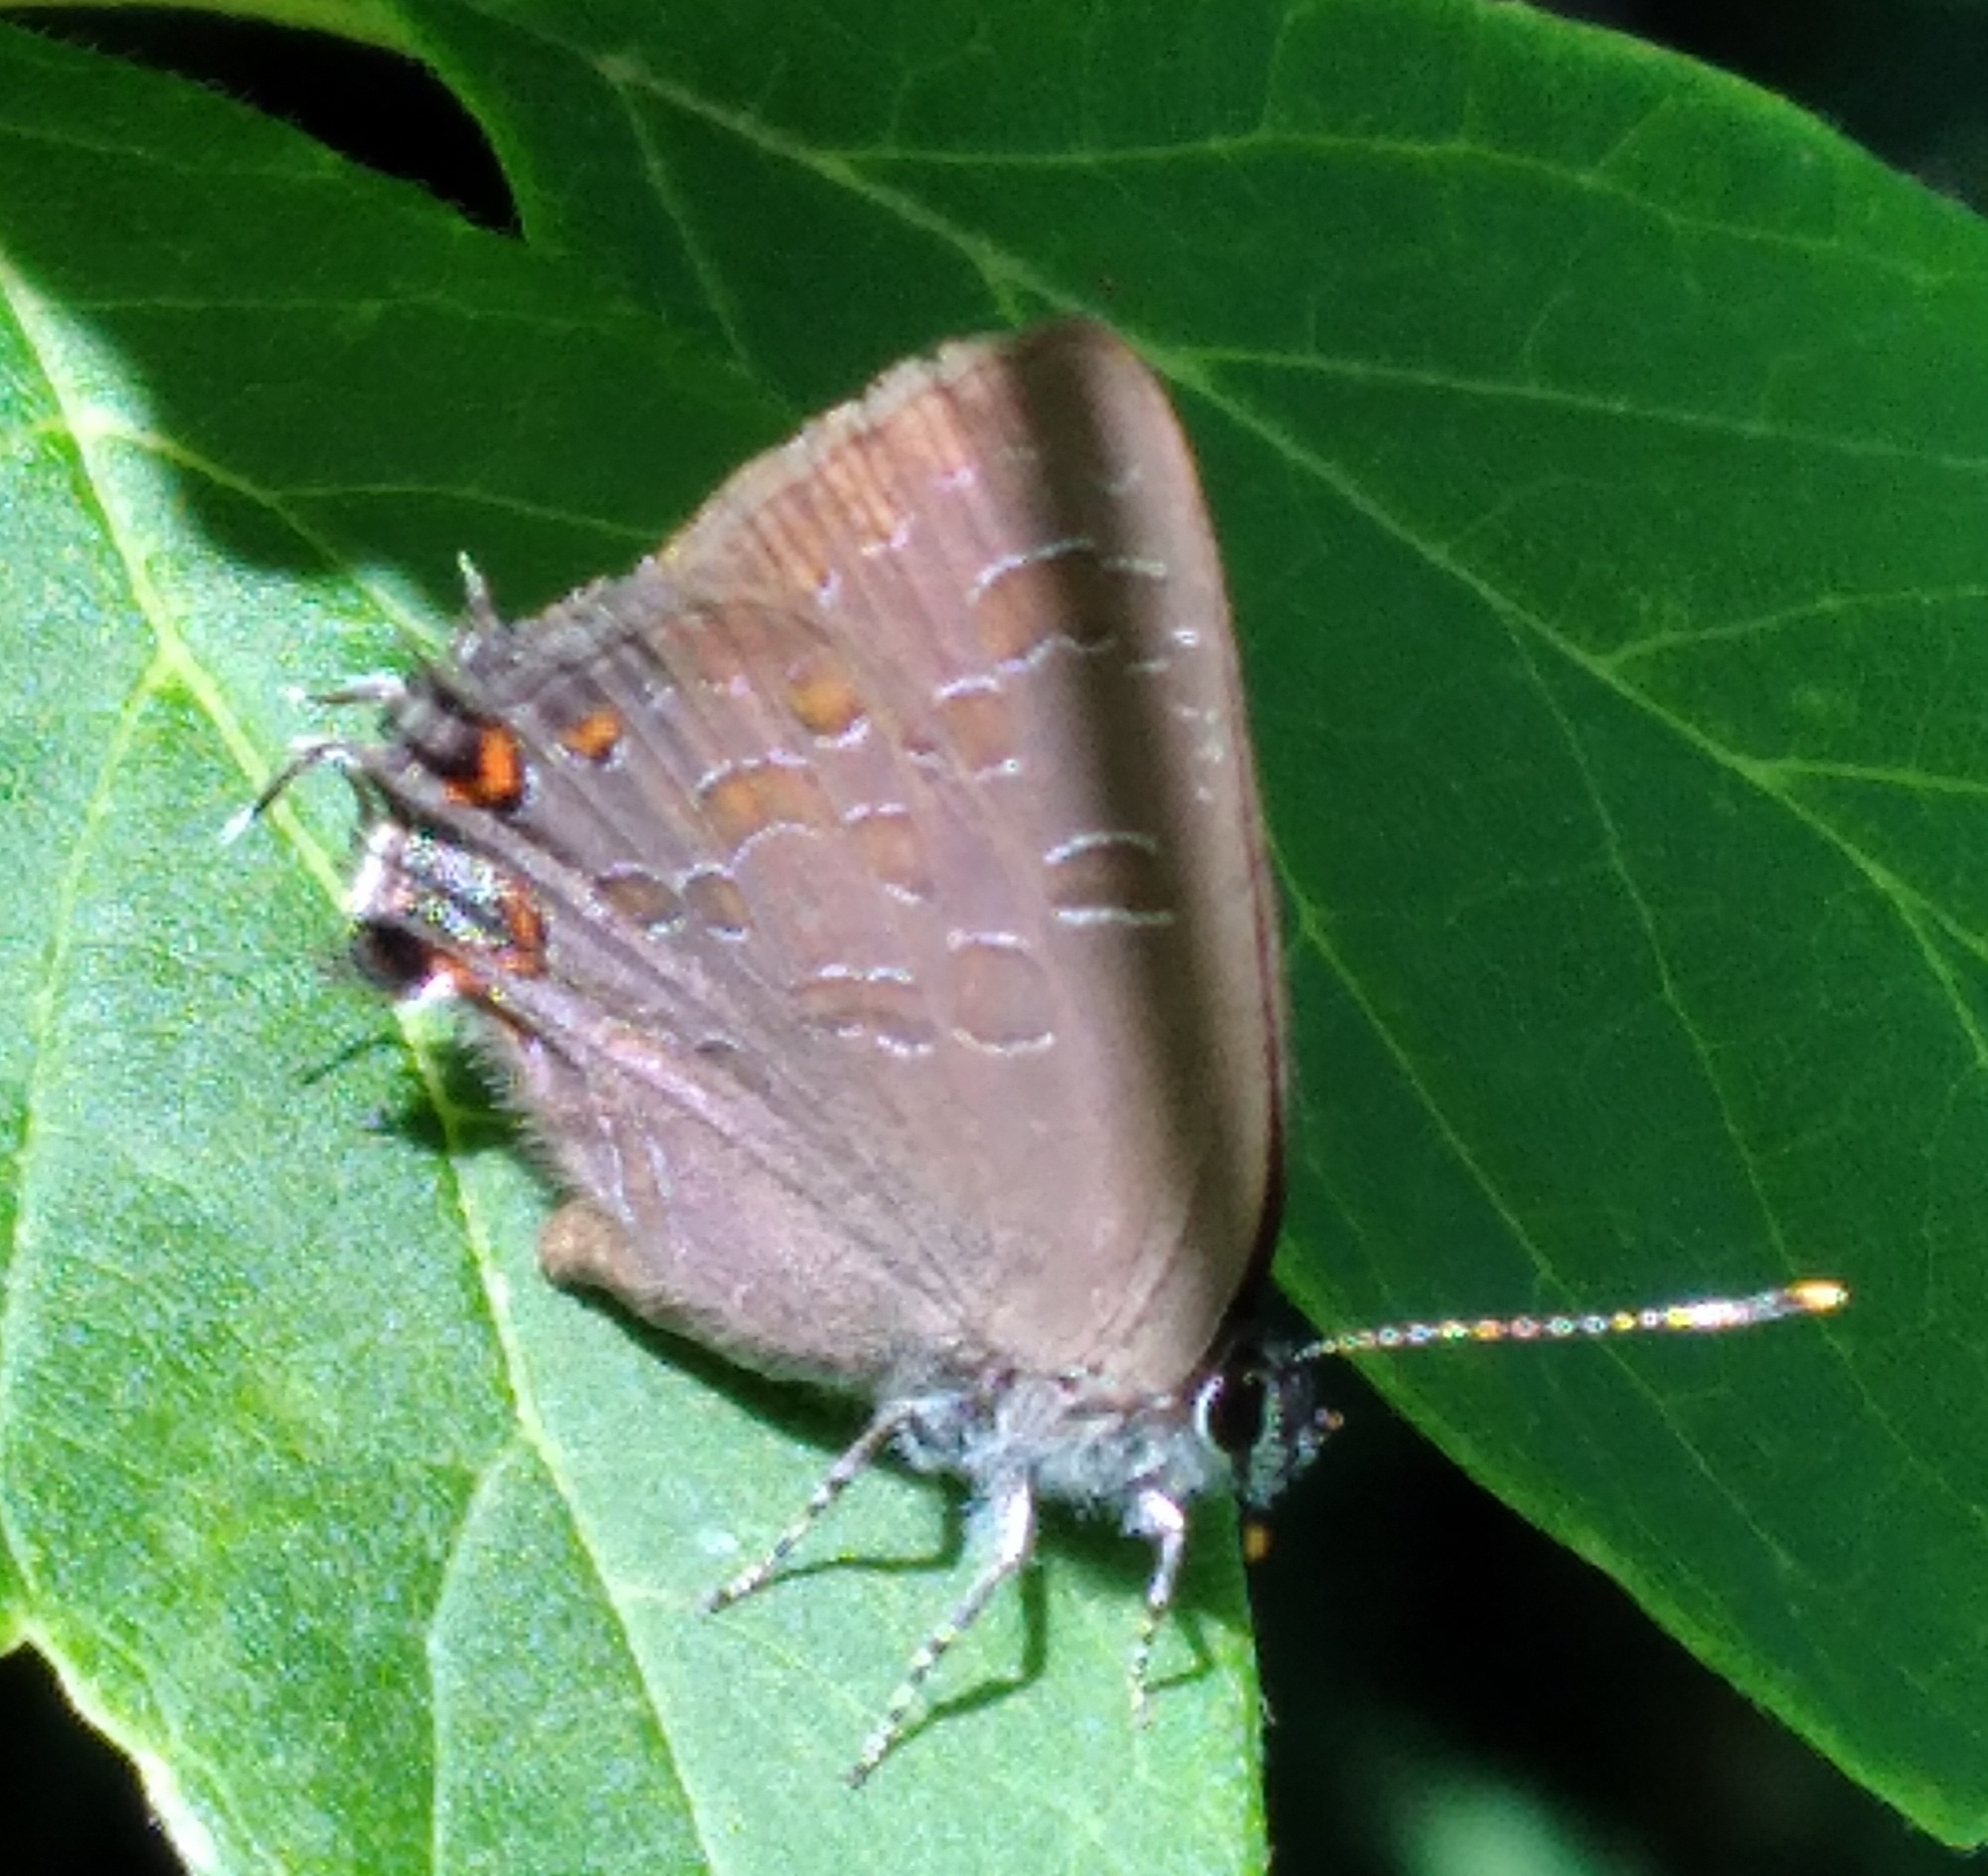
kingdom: Animalia
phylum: Arthropoda
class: Insecta
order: Lepidoptera
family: Lycaenidae
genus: Satyrium
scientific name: Satyrium liparops
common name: Striped hairstreak
